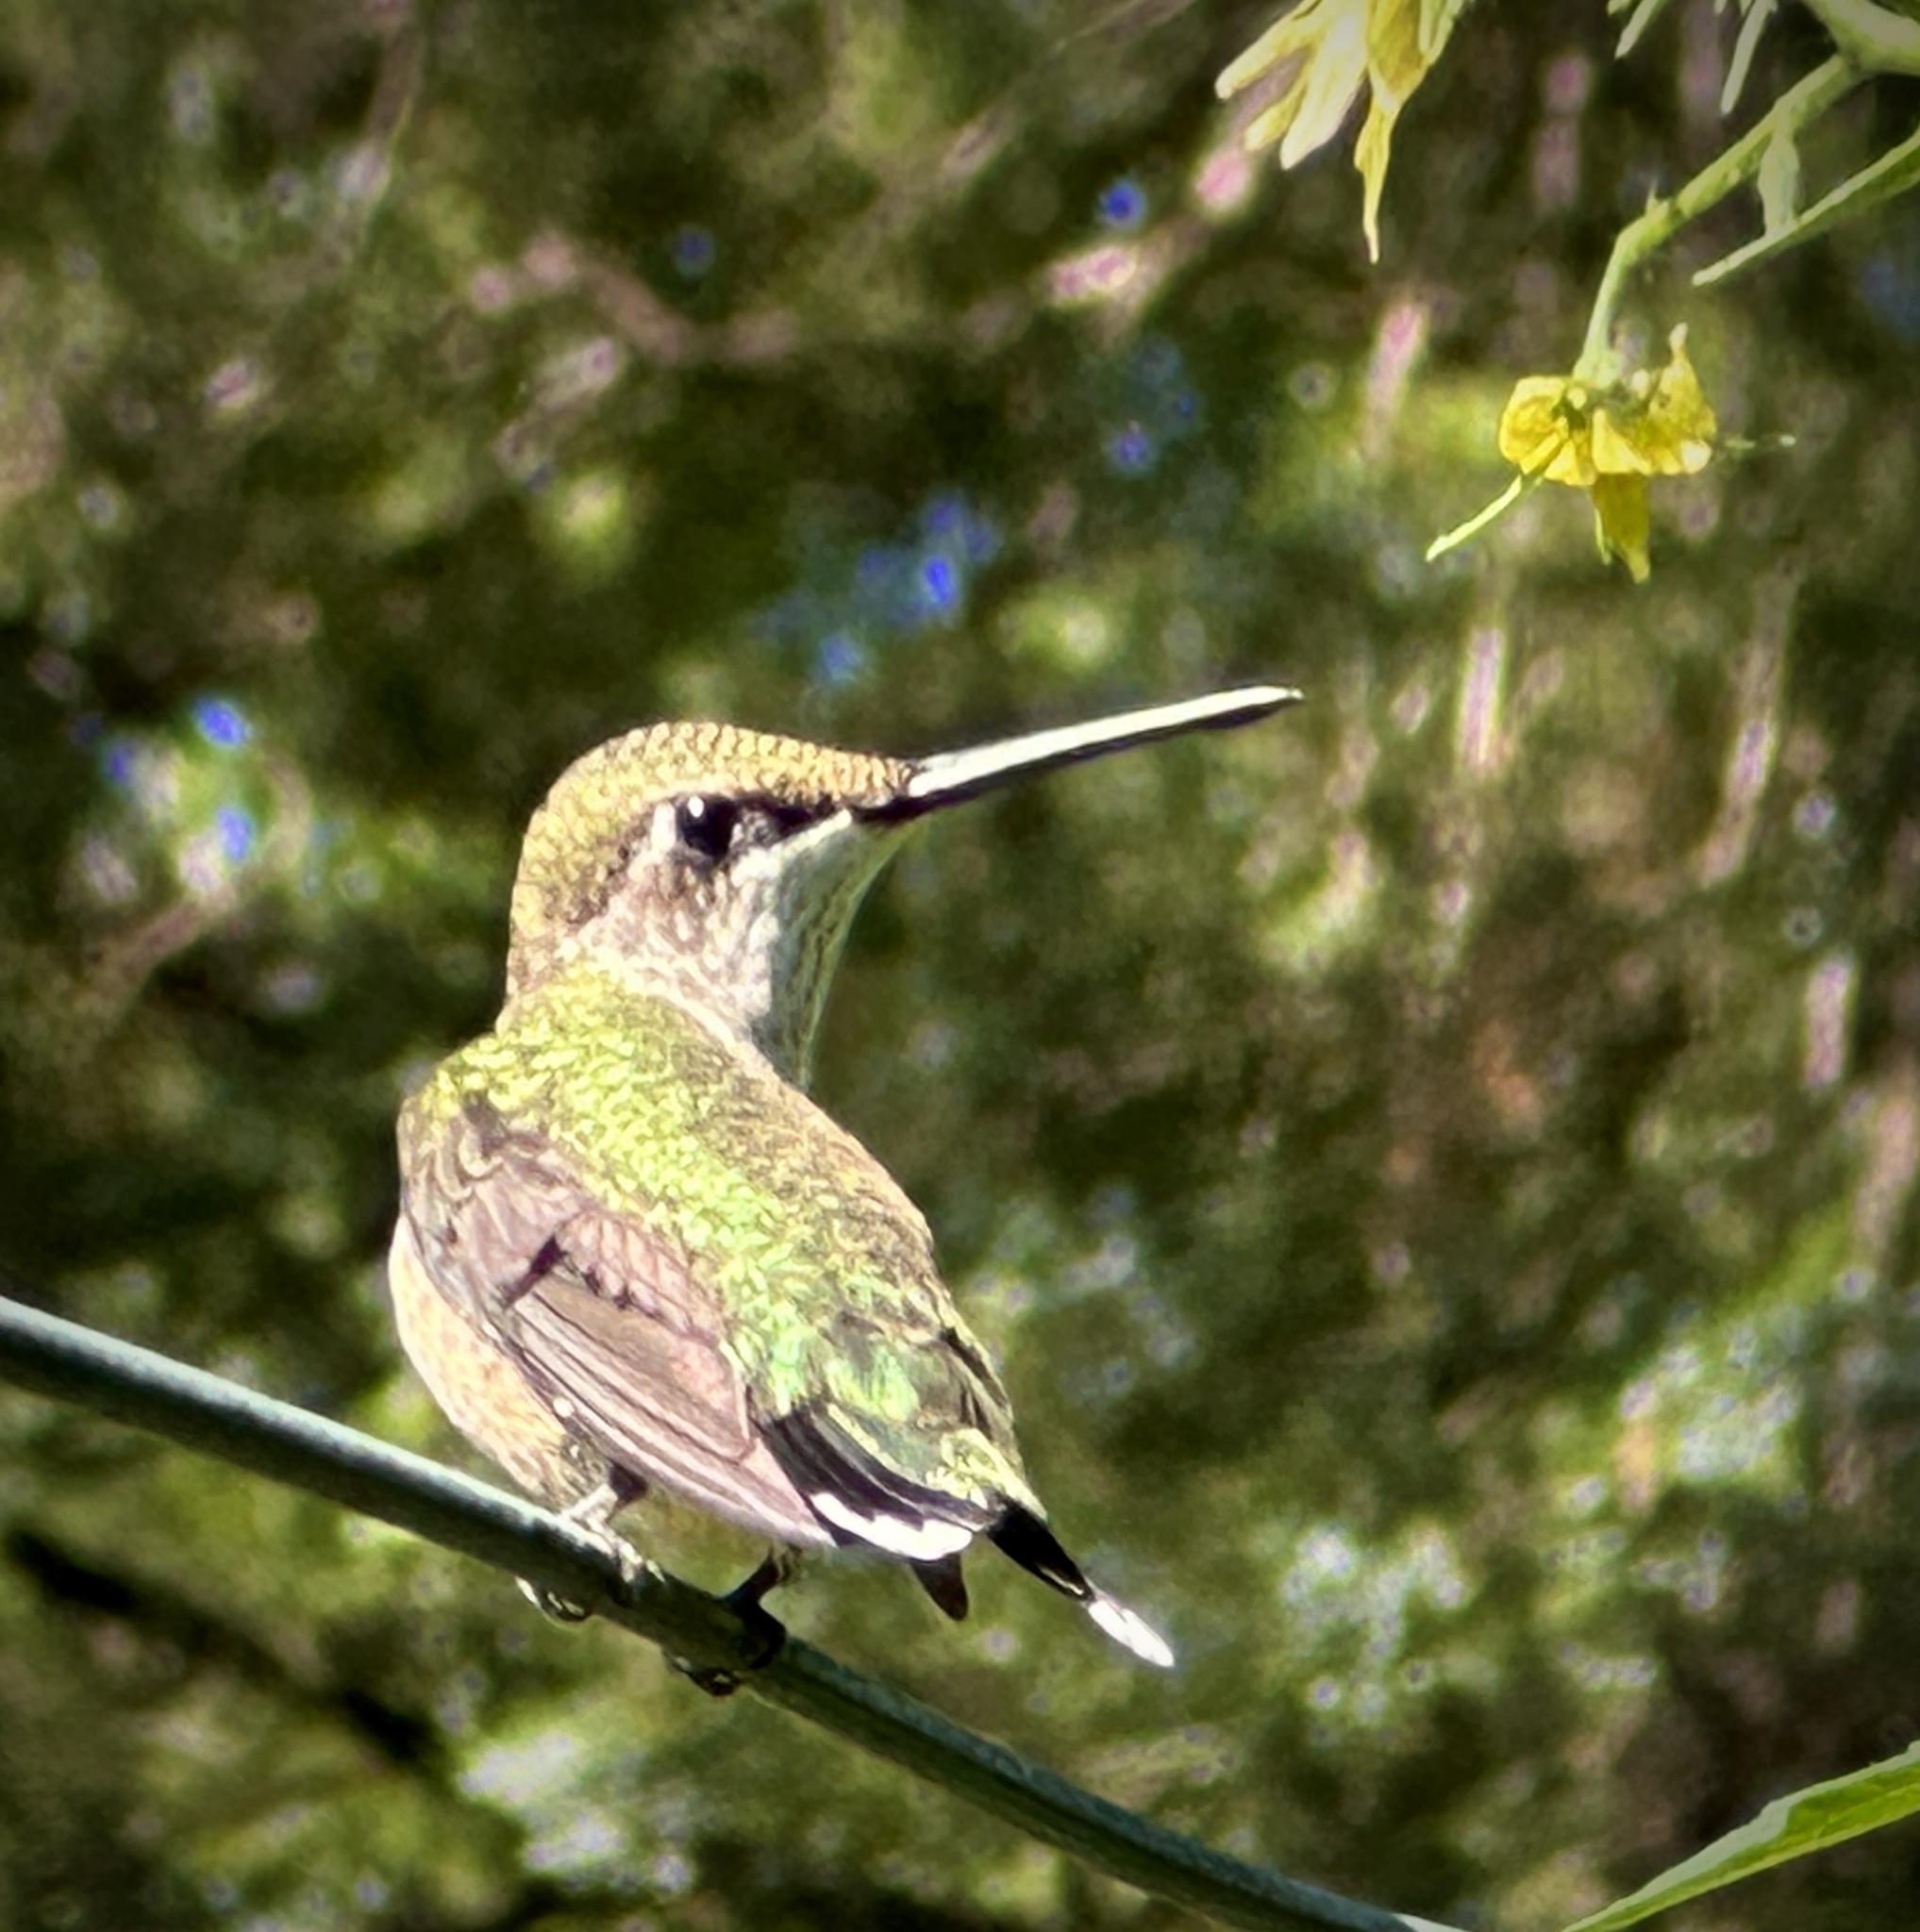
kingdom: Animalia
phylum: Chordata
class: Aves
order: Apodiformes
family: Trochilidae
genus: Archilochus
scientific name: Archilochus colubris
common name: Ruby-throated hummingbird
